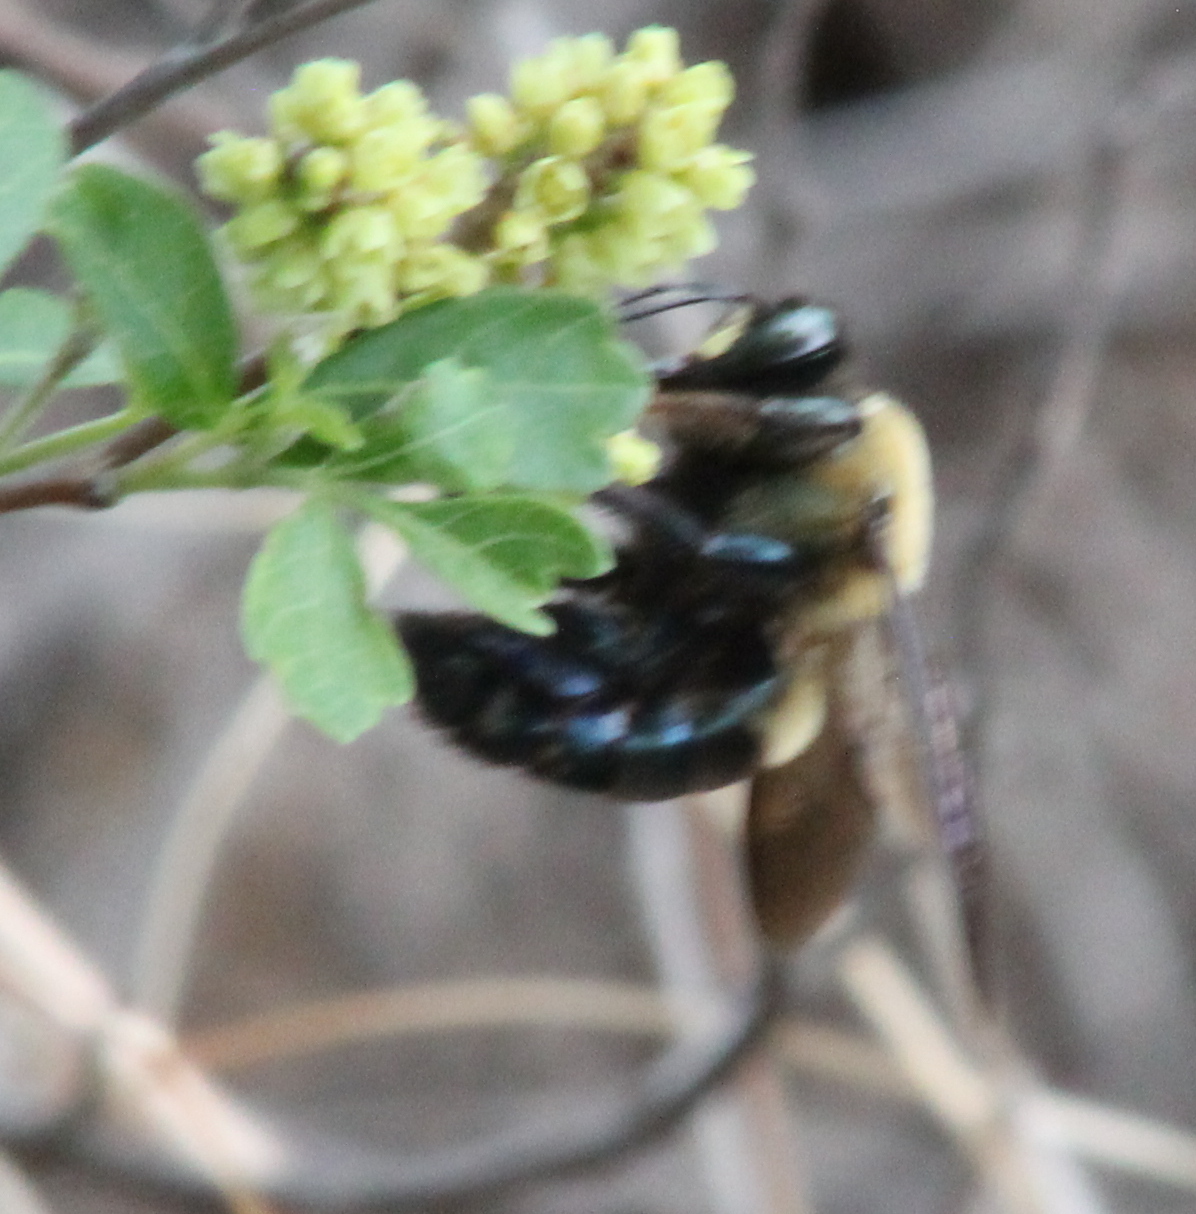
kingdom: Animalia
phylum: Arthropoda
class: Insecta
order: Hymenoptera
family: Apidae
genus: Xylocopa
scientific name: Xylocopa virginica
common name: Carpenter bee
